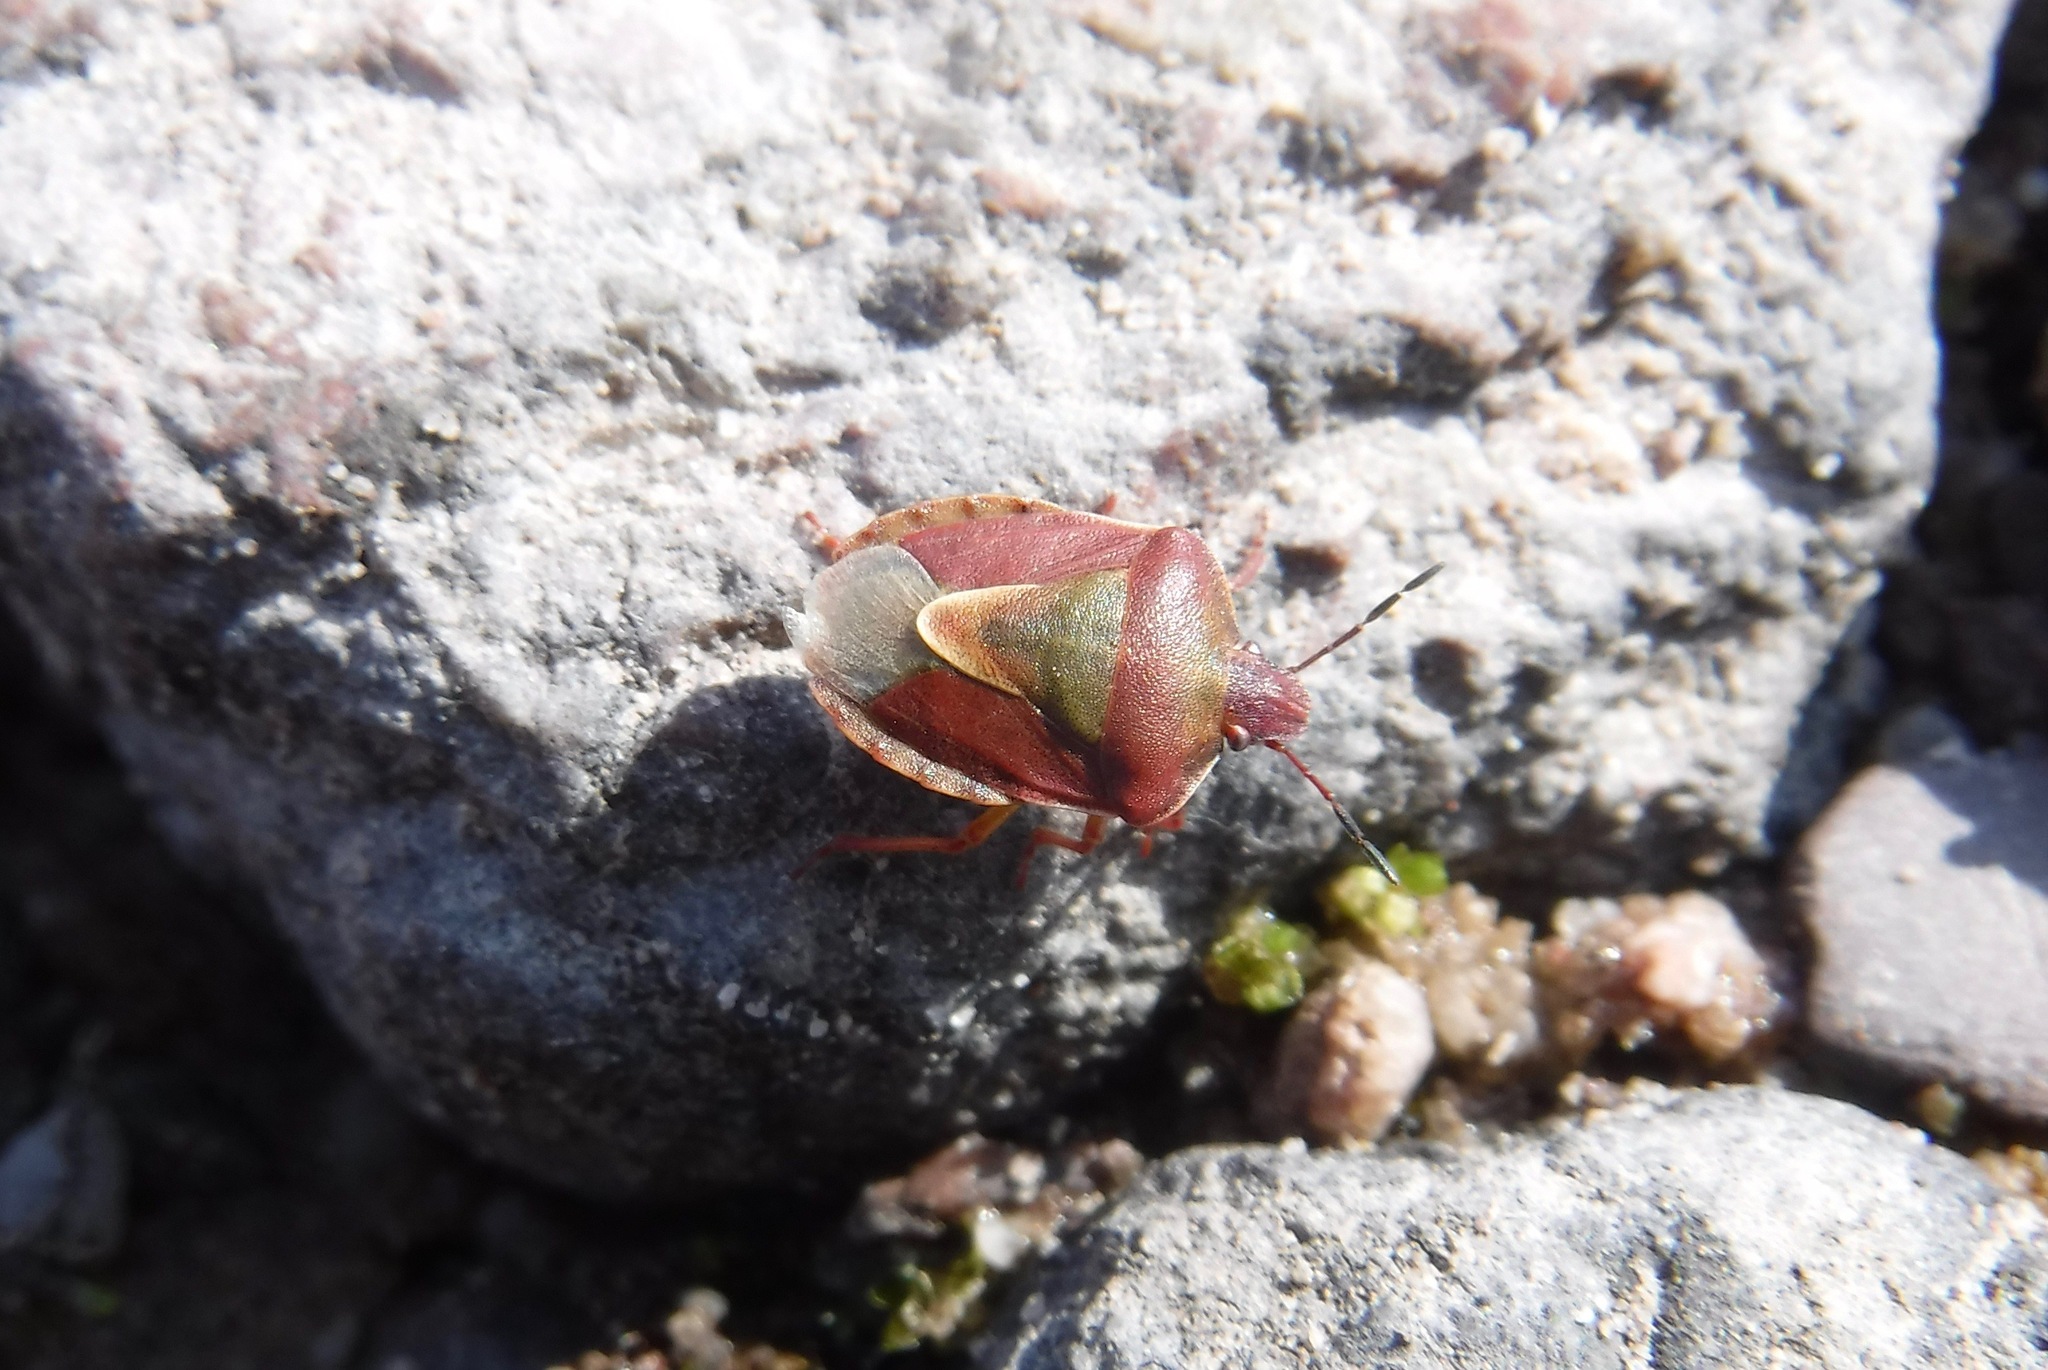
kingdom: Animalia
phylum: Arthropoda
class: Insecta
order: Hemiptera
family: Pentatomidae
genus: Antheminia
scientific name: Antheminia
